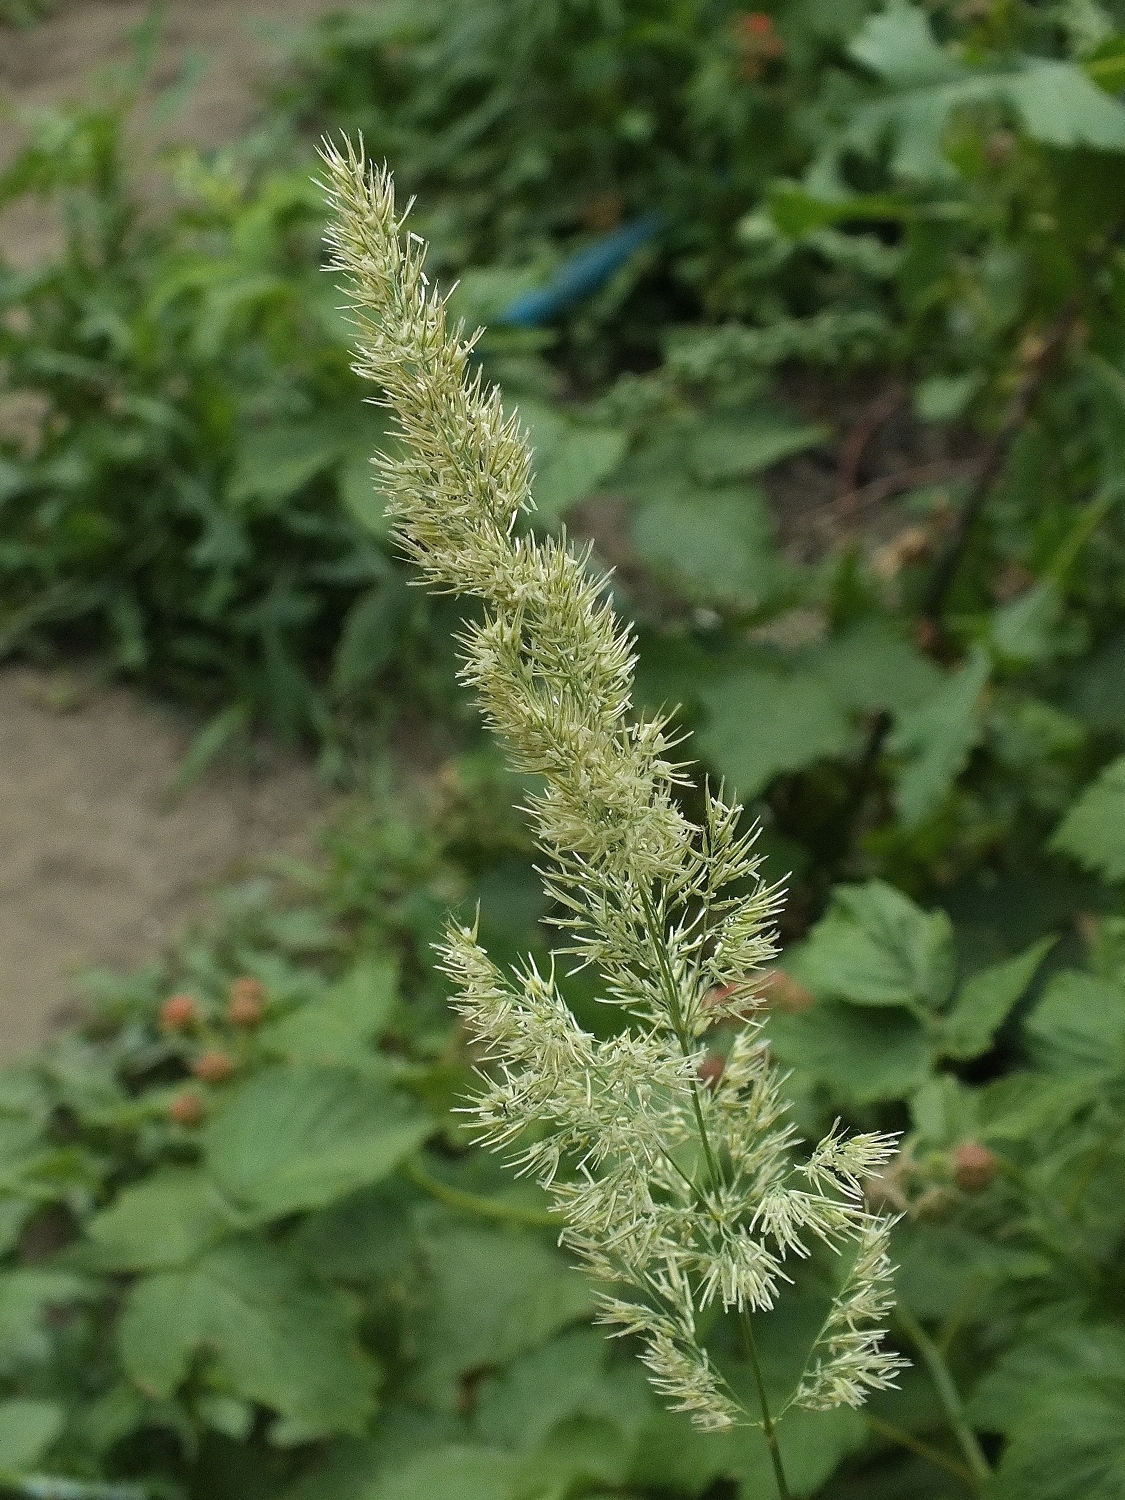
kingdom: Plantae
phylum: Tracheophyta
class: Liliopsida
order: Poales
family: Poaceae
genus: Calamagrostis
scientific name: Calamagrostis epigejos
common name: Wood small-reed
